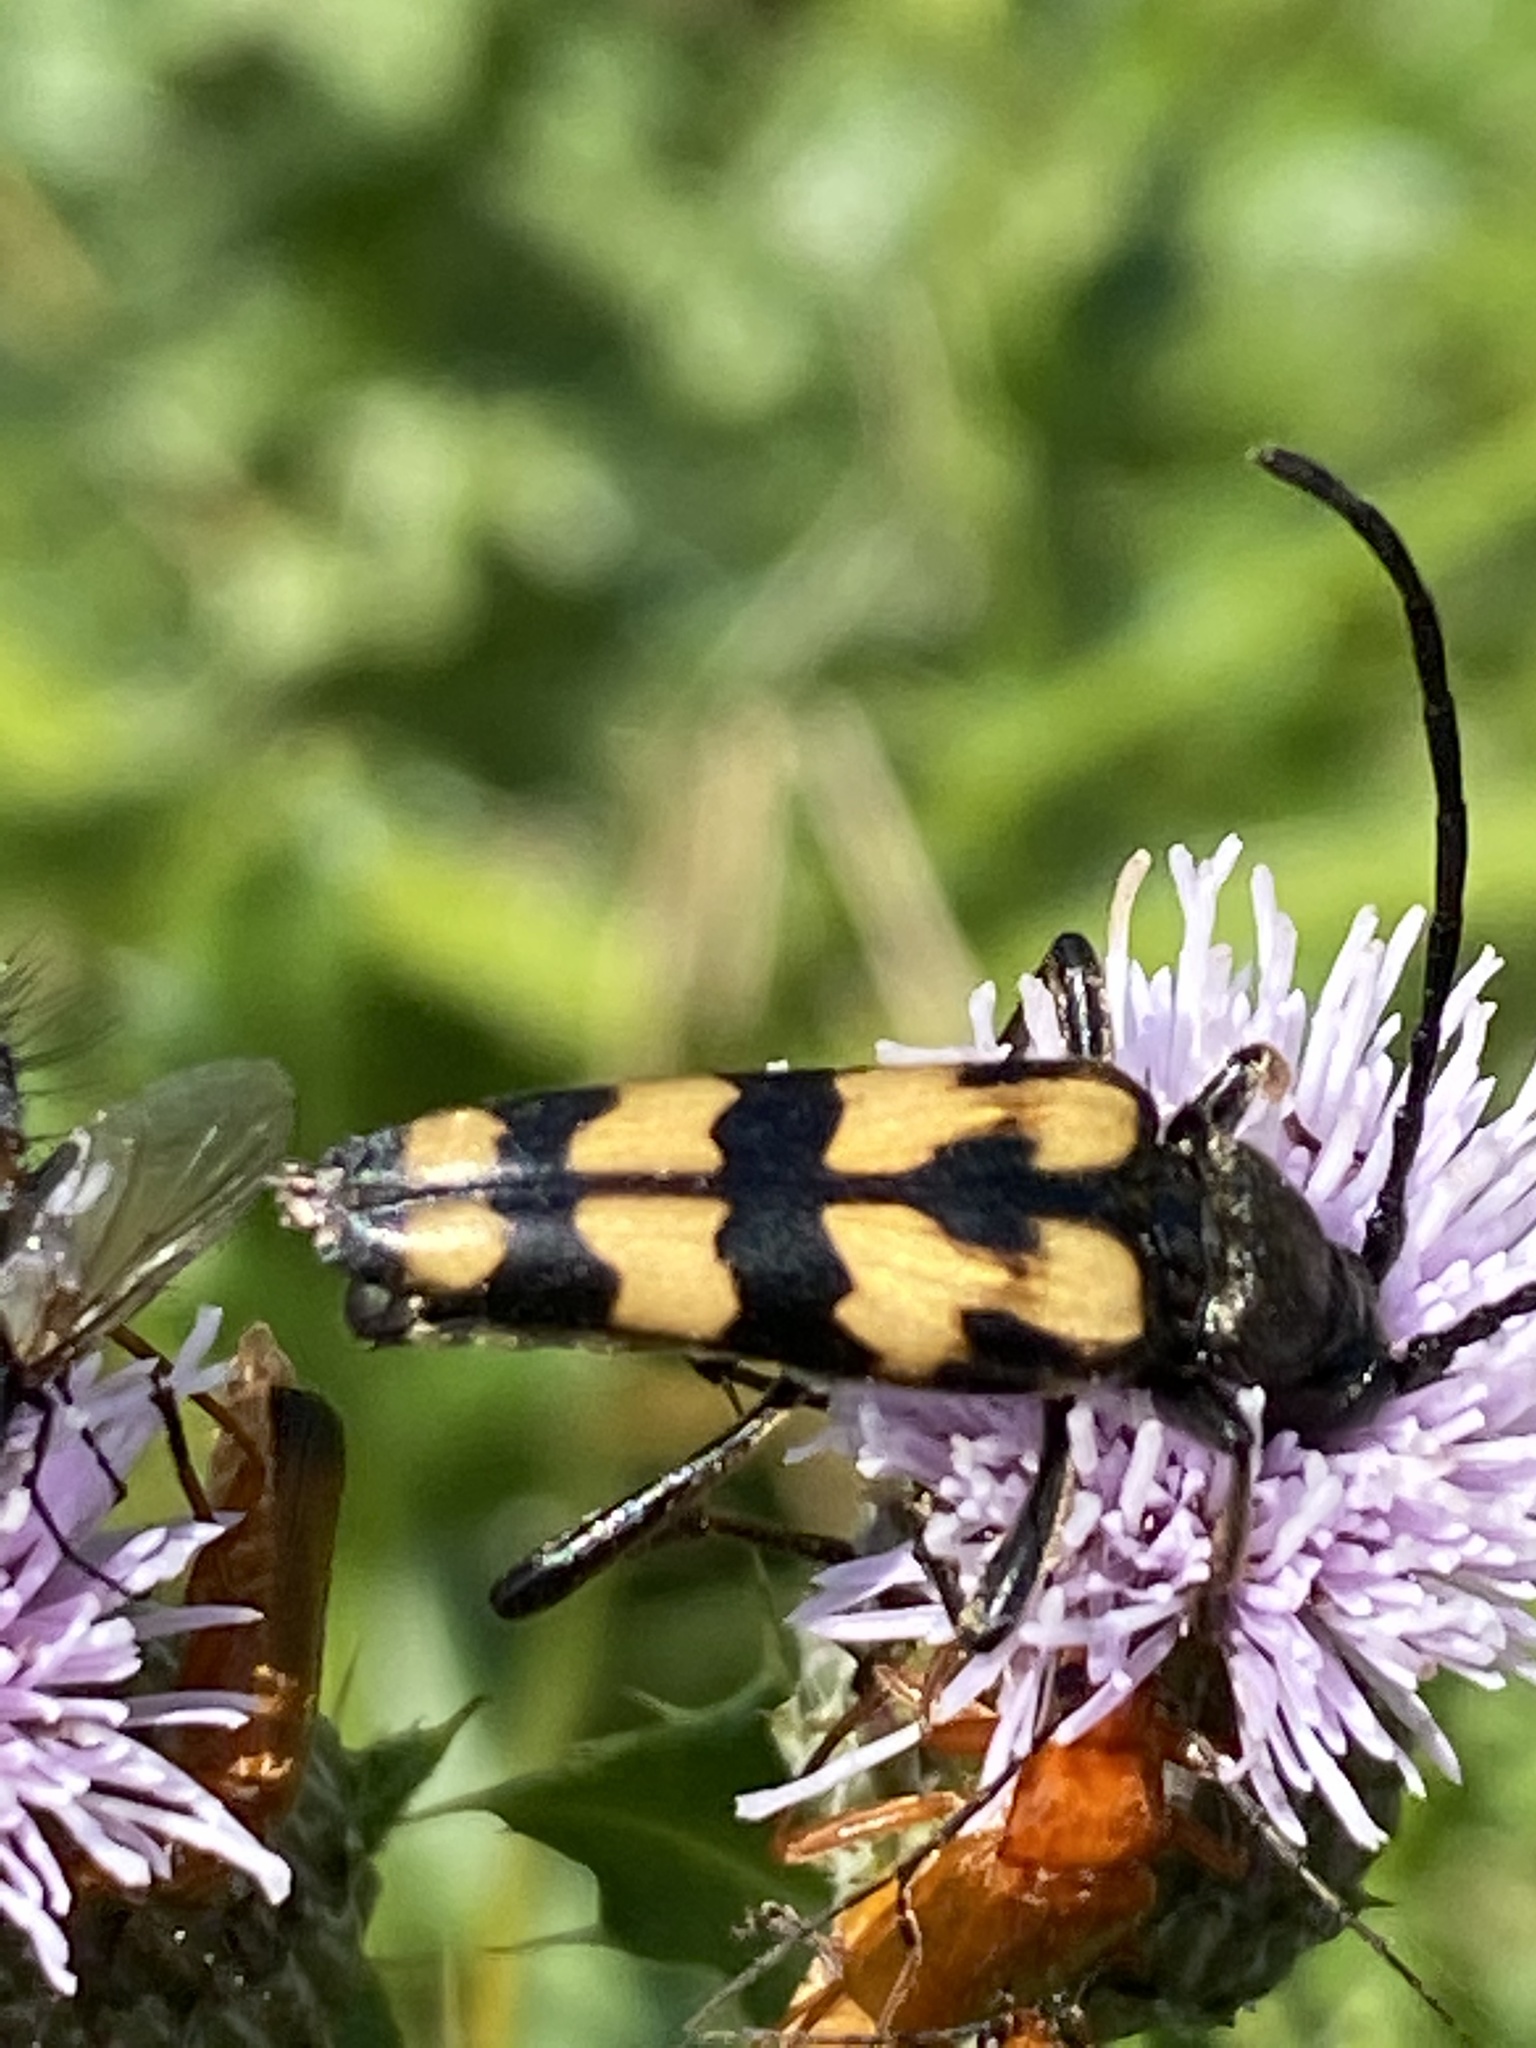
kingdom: Animalia
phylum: Arthropoda
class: Insecta
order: Coleoptera
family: Cerambycidae
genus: Leptura
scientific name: Leptura quadrifasciata
